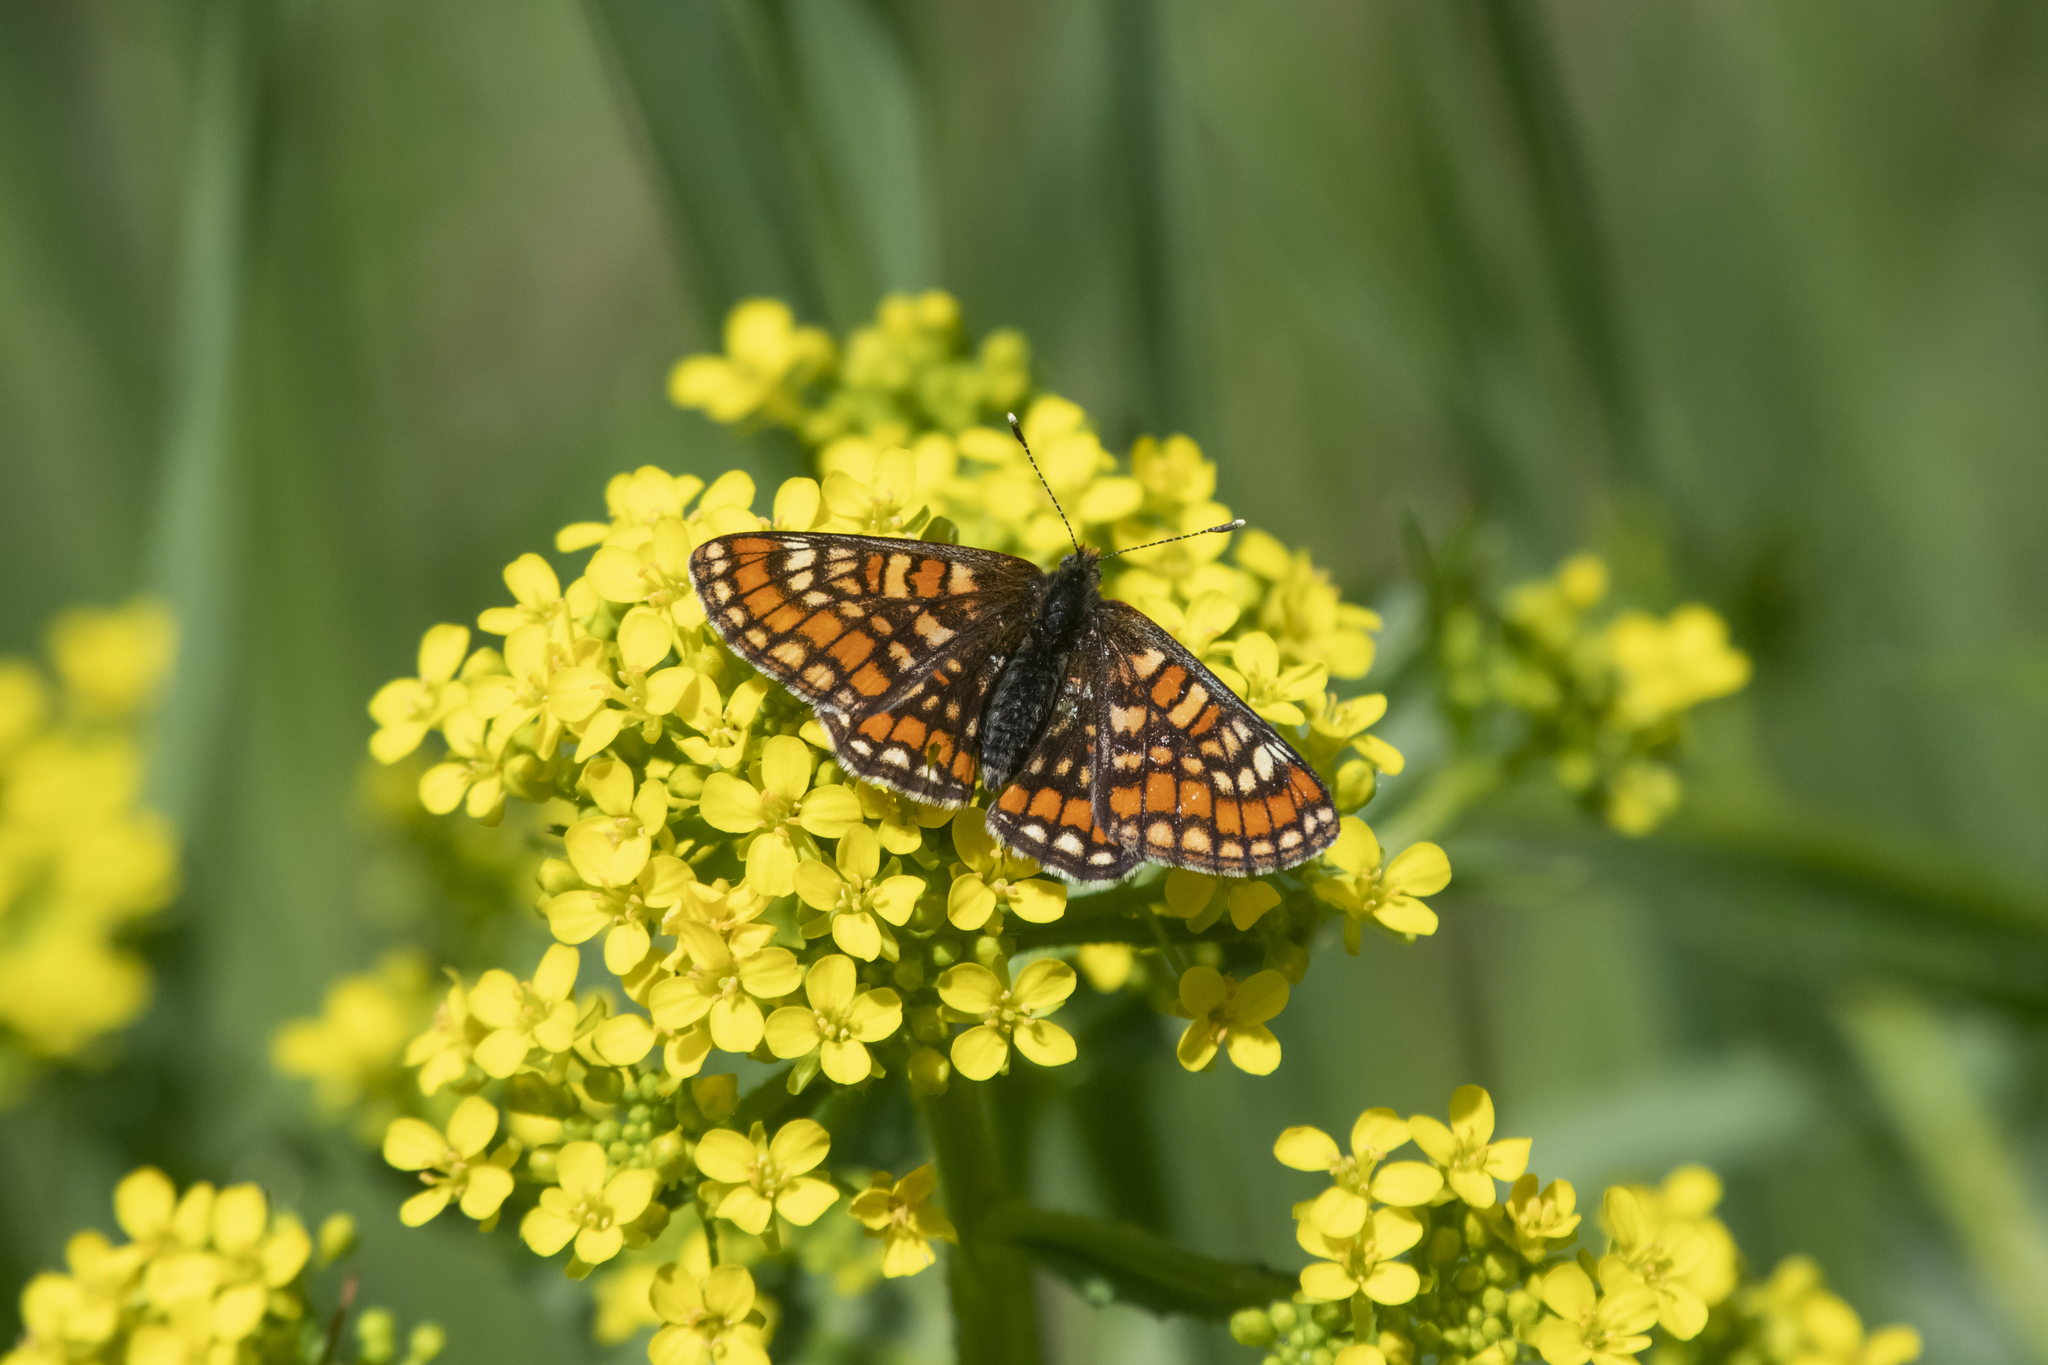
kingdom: Animalia
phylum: Arthropoda
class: Insecta
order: Lepidoptera
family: Nymphalidae
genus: Euphydryas
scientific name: Euphydryas maturna
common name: Scarce fritillary
